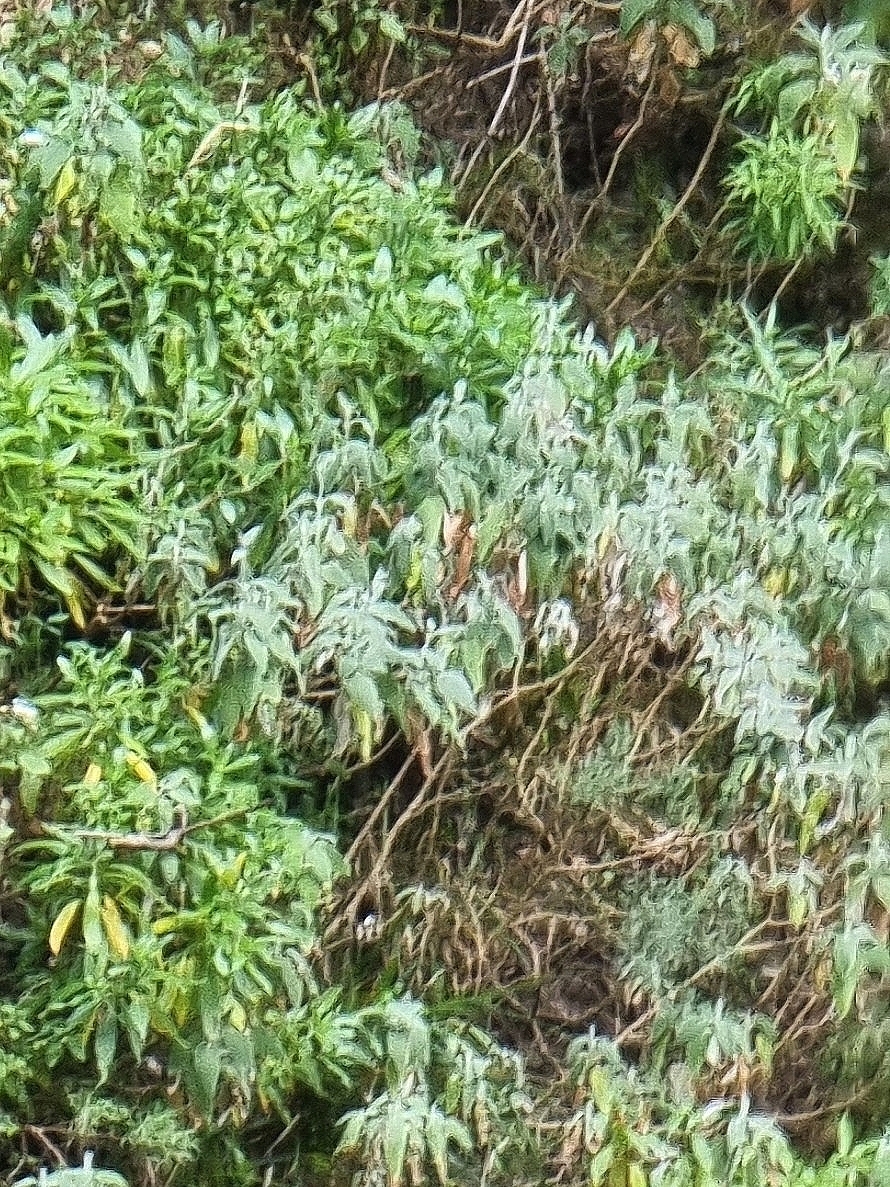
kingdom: Plantae
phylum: Tracheophyta
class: Magnoliopsida
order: Lamiales
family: Lamiaceae
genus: Sideritis
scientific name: Sideritis candicans
